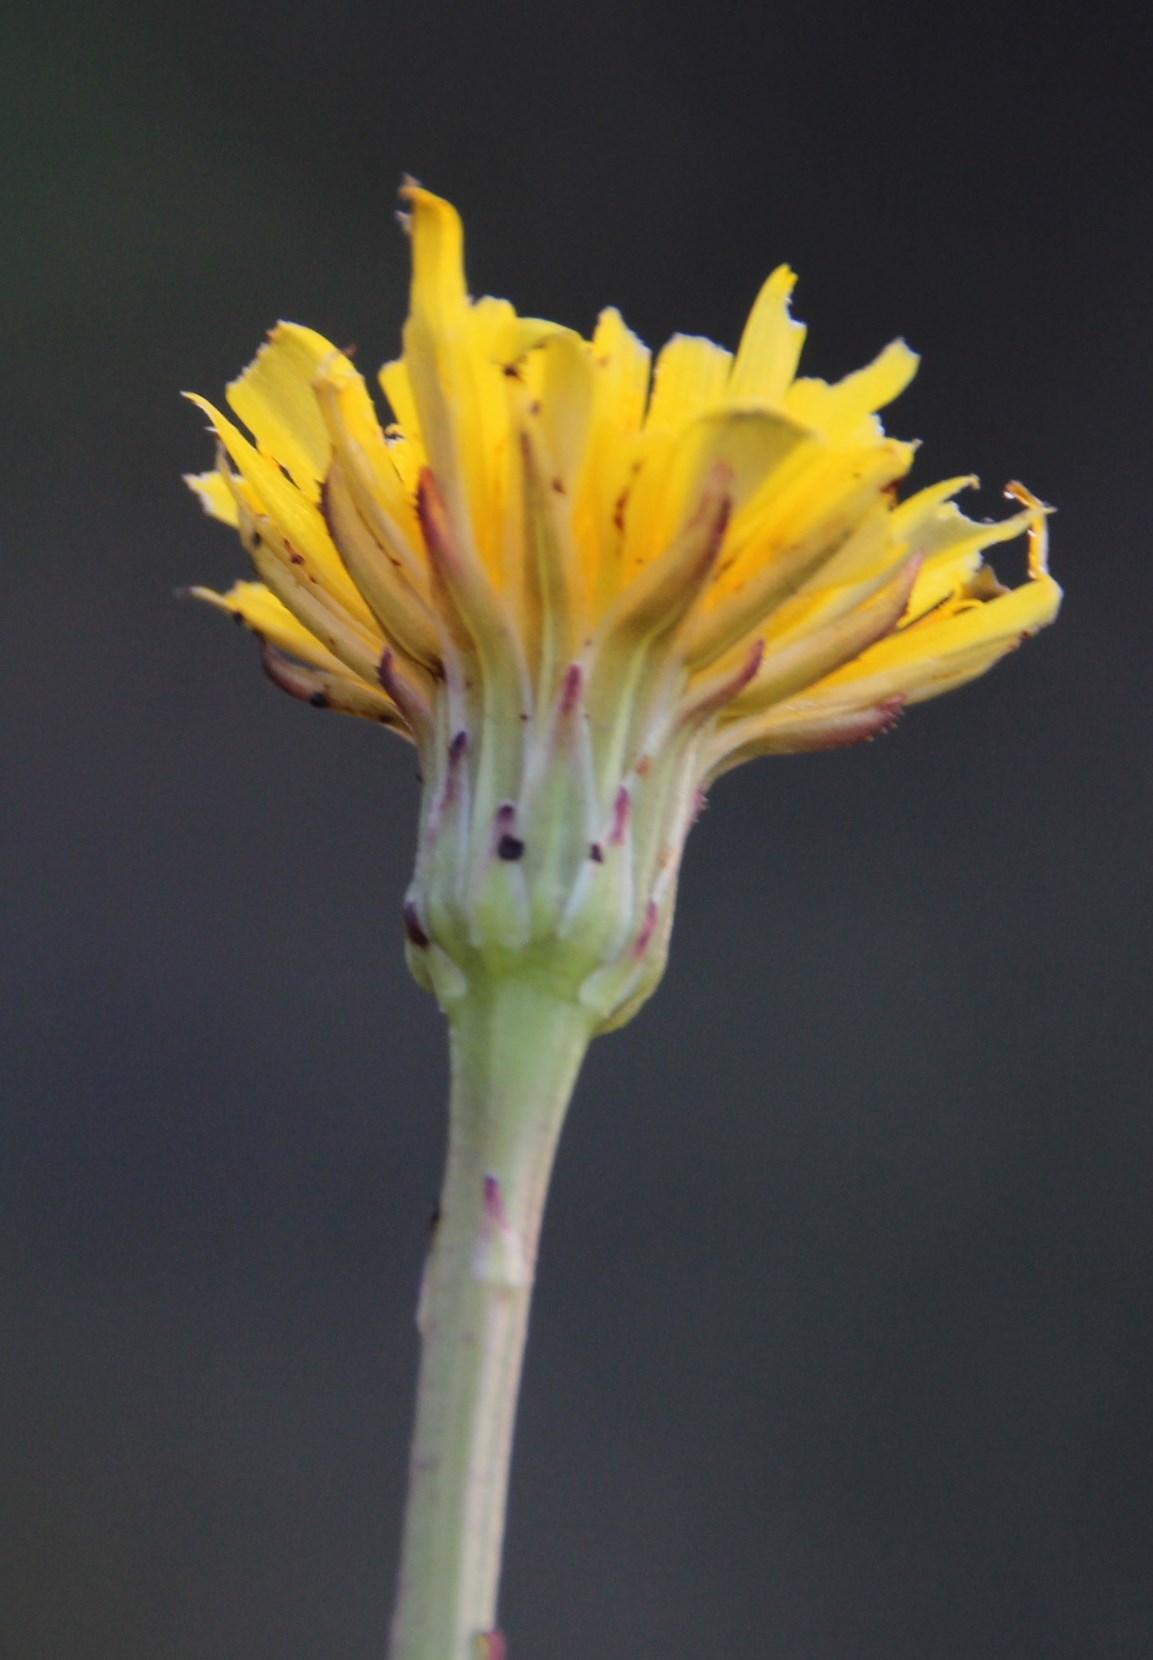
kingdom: Plantae
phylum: Tracheophyta
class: Magnoliopsida
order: Asterales
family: Asteraceae
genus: Hypochaeris
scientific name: Hypochaeris radicata
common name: Flatweed
